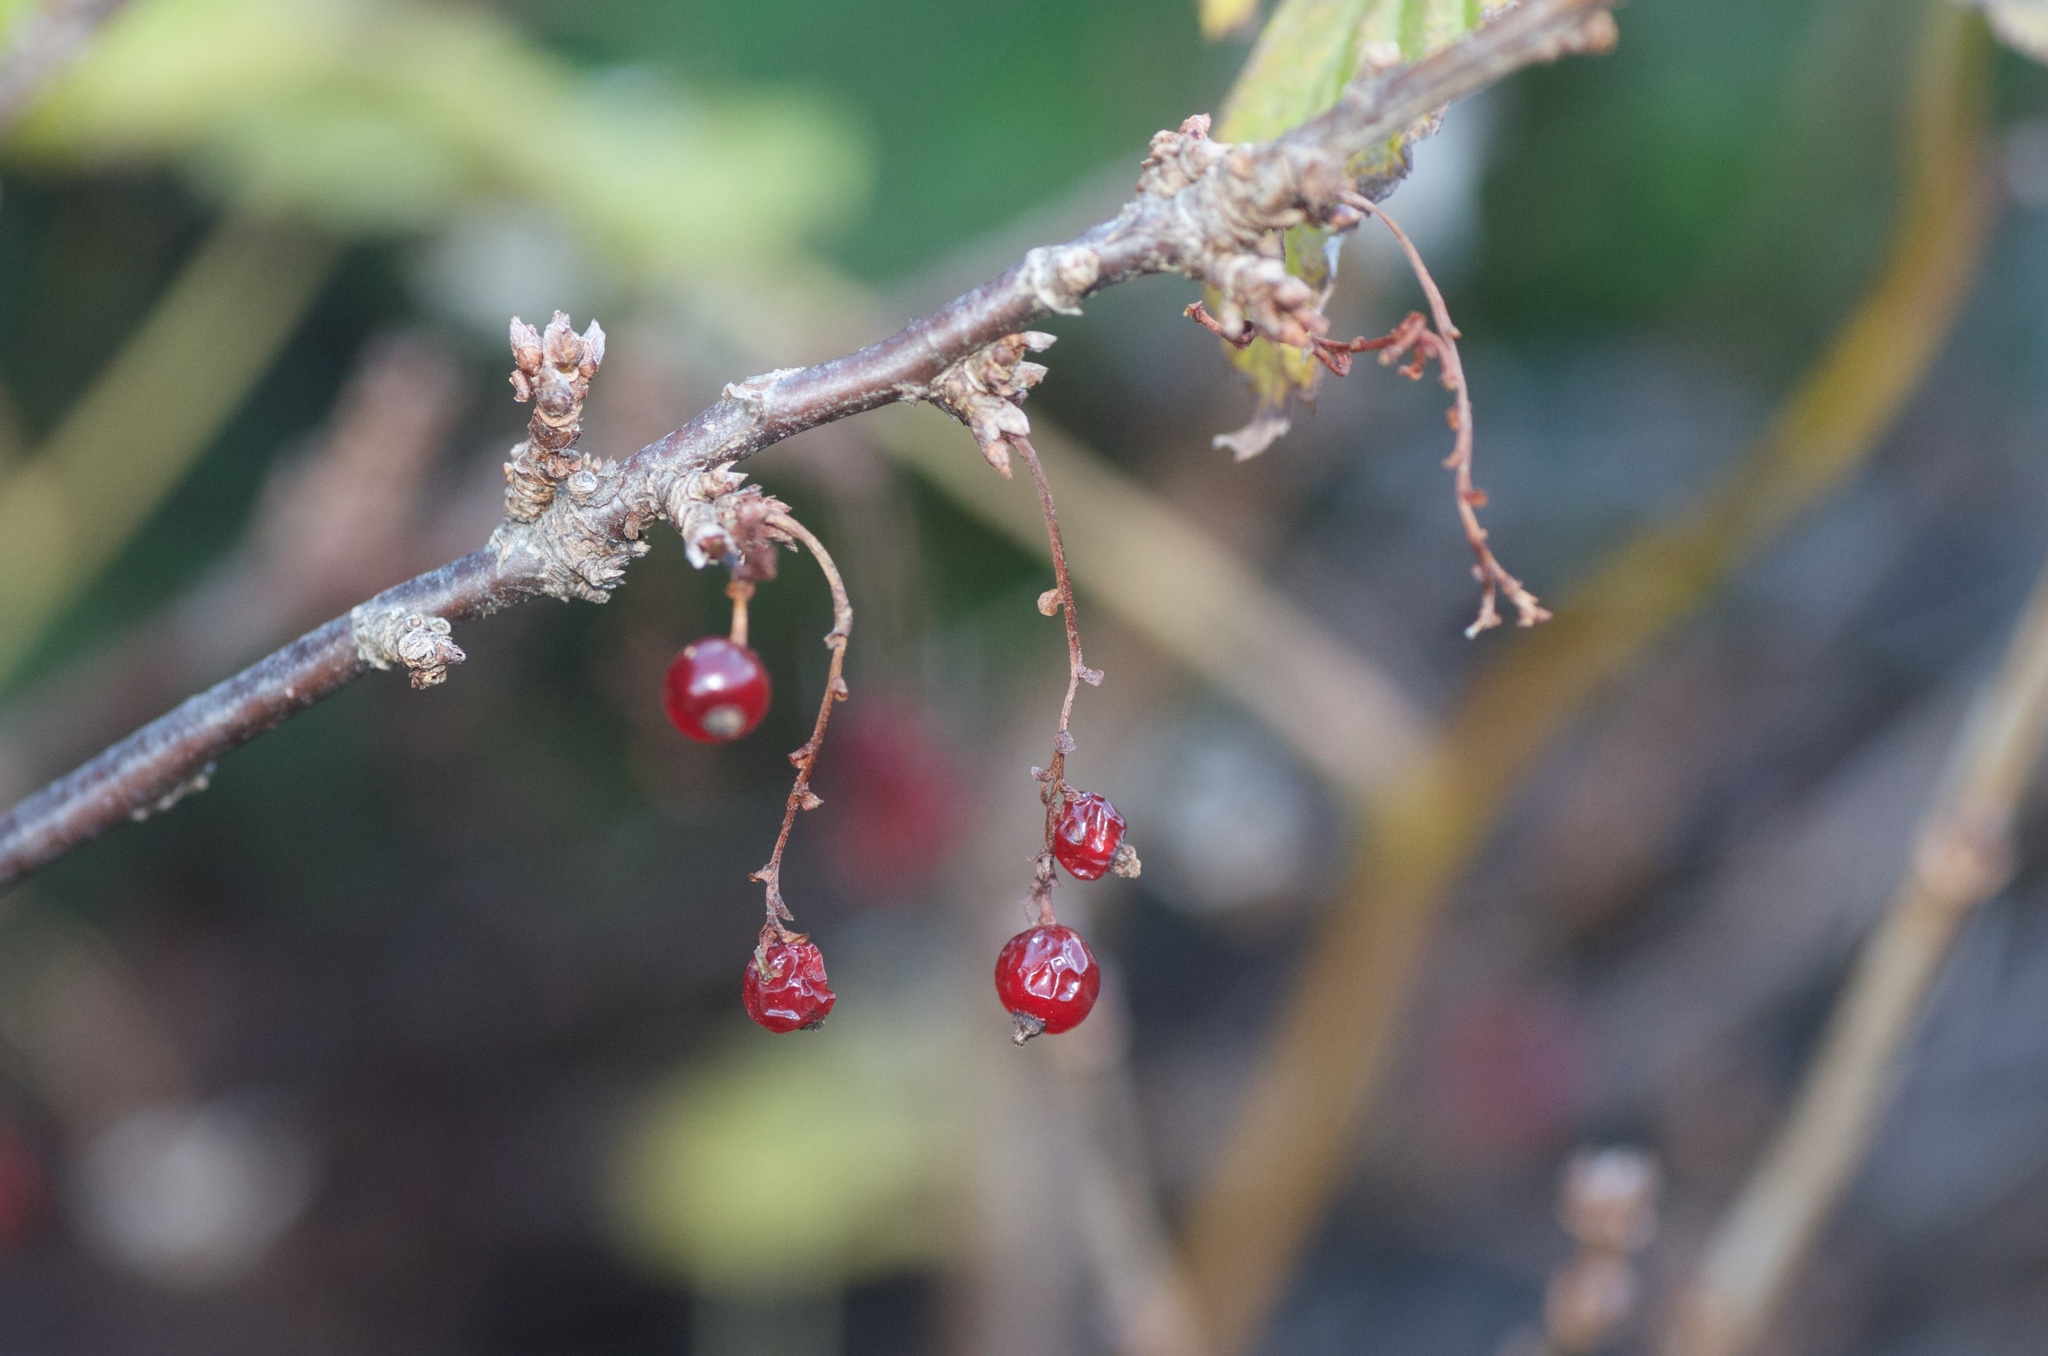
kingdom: Plantae
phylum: Tracheophyta
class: Magnoliopsida
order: Saxifragales
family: Grossulariaceae
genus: Ribes
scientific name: Ribes rubrum
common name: Red currant
